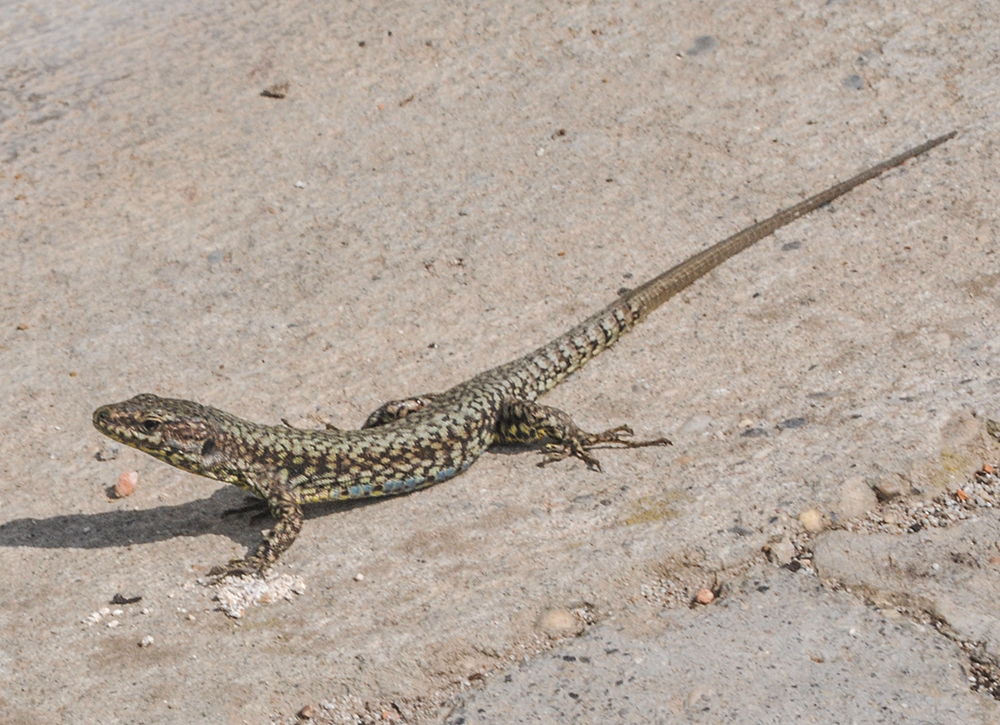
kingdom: Animalia
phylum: Chordata
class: Squamata
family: Lacertidae
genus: Podarcis
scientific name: Podarcis muralis
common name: Common wall lizard
